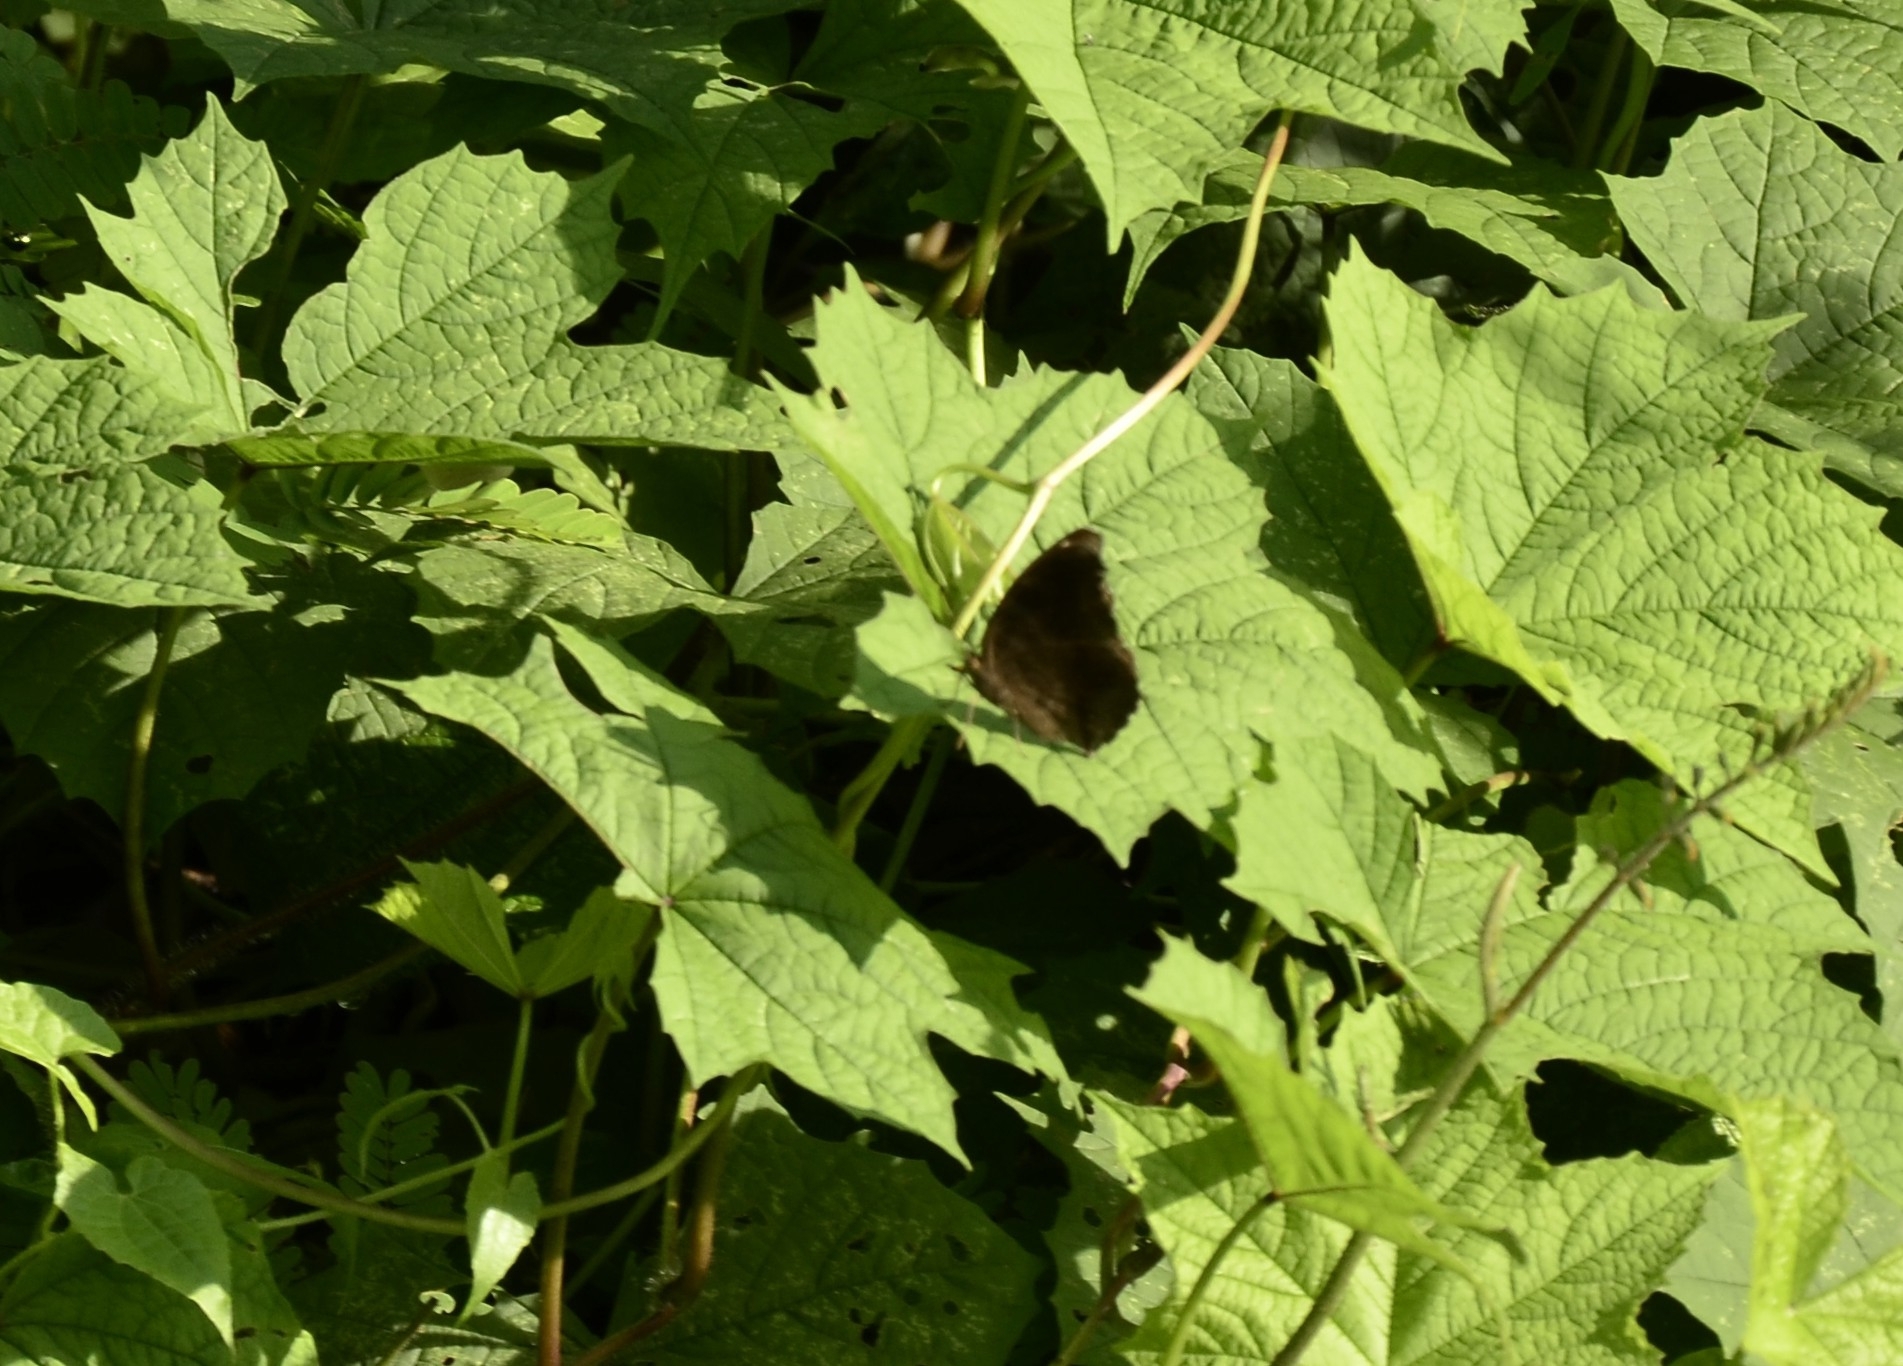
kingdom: Animalia
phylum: Arthropoda
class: Insecta
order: Lepidoptera
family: Nymphalidae
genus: Junonia
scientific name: Junonia iphita
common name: Chocolate pansy
